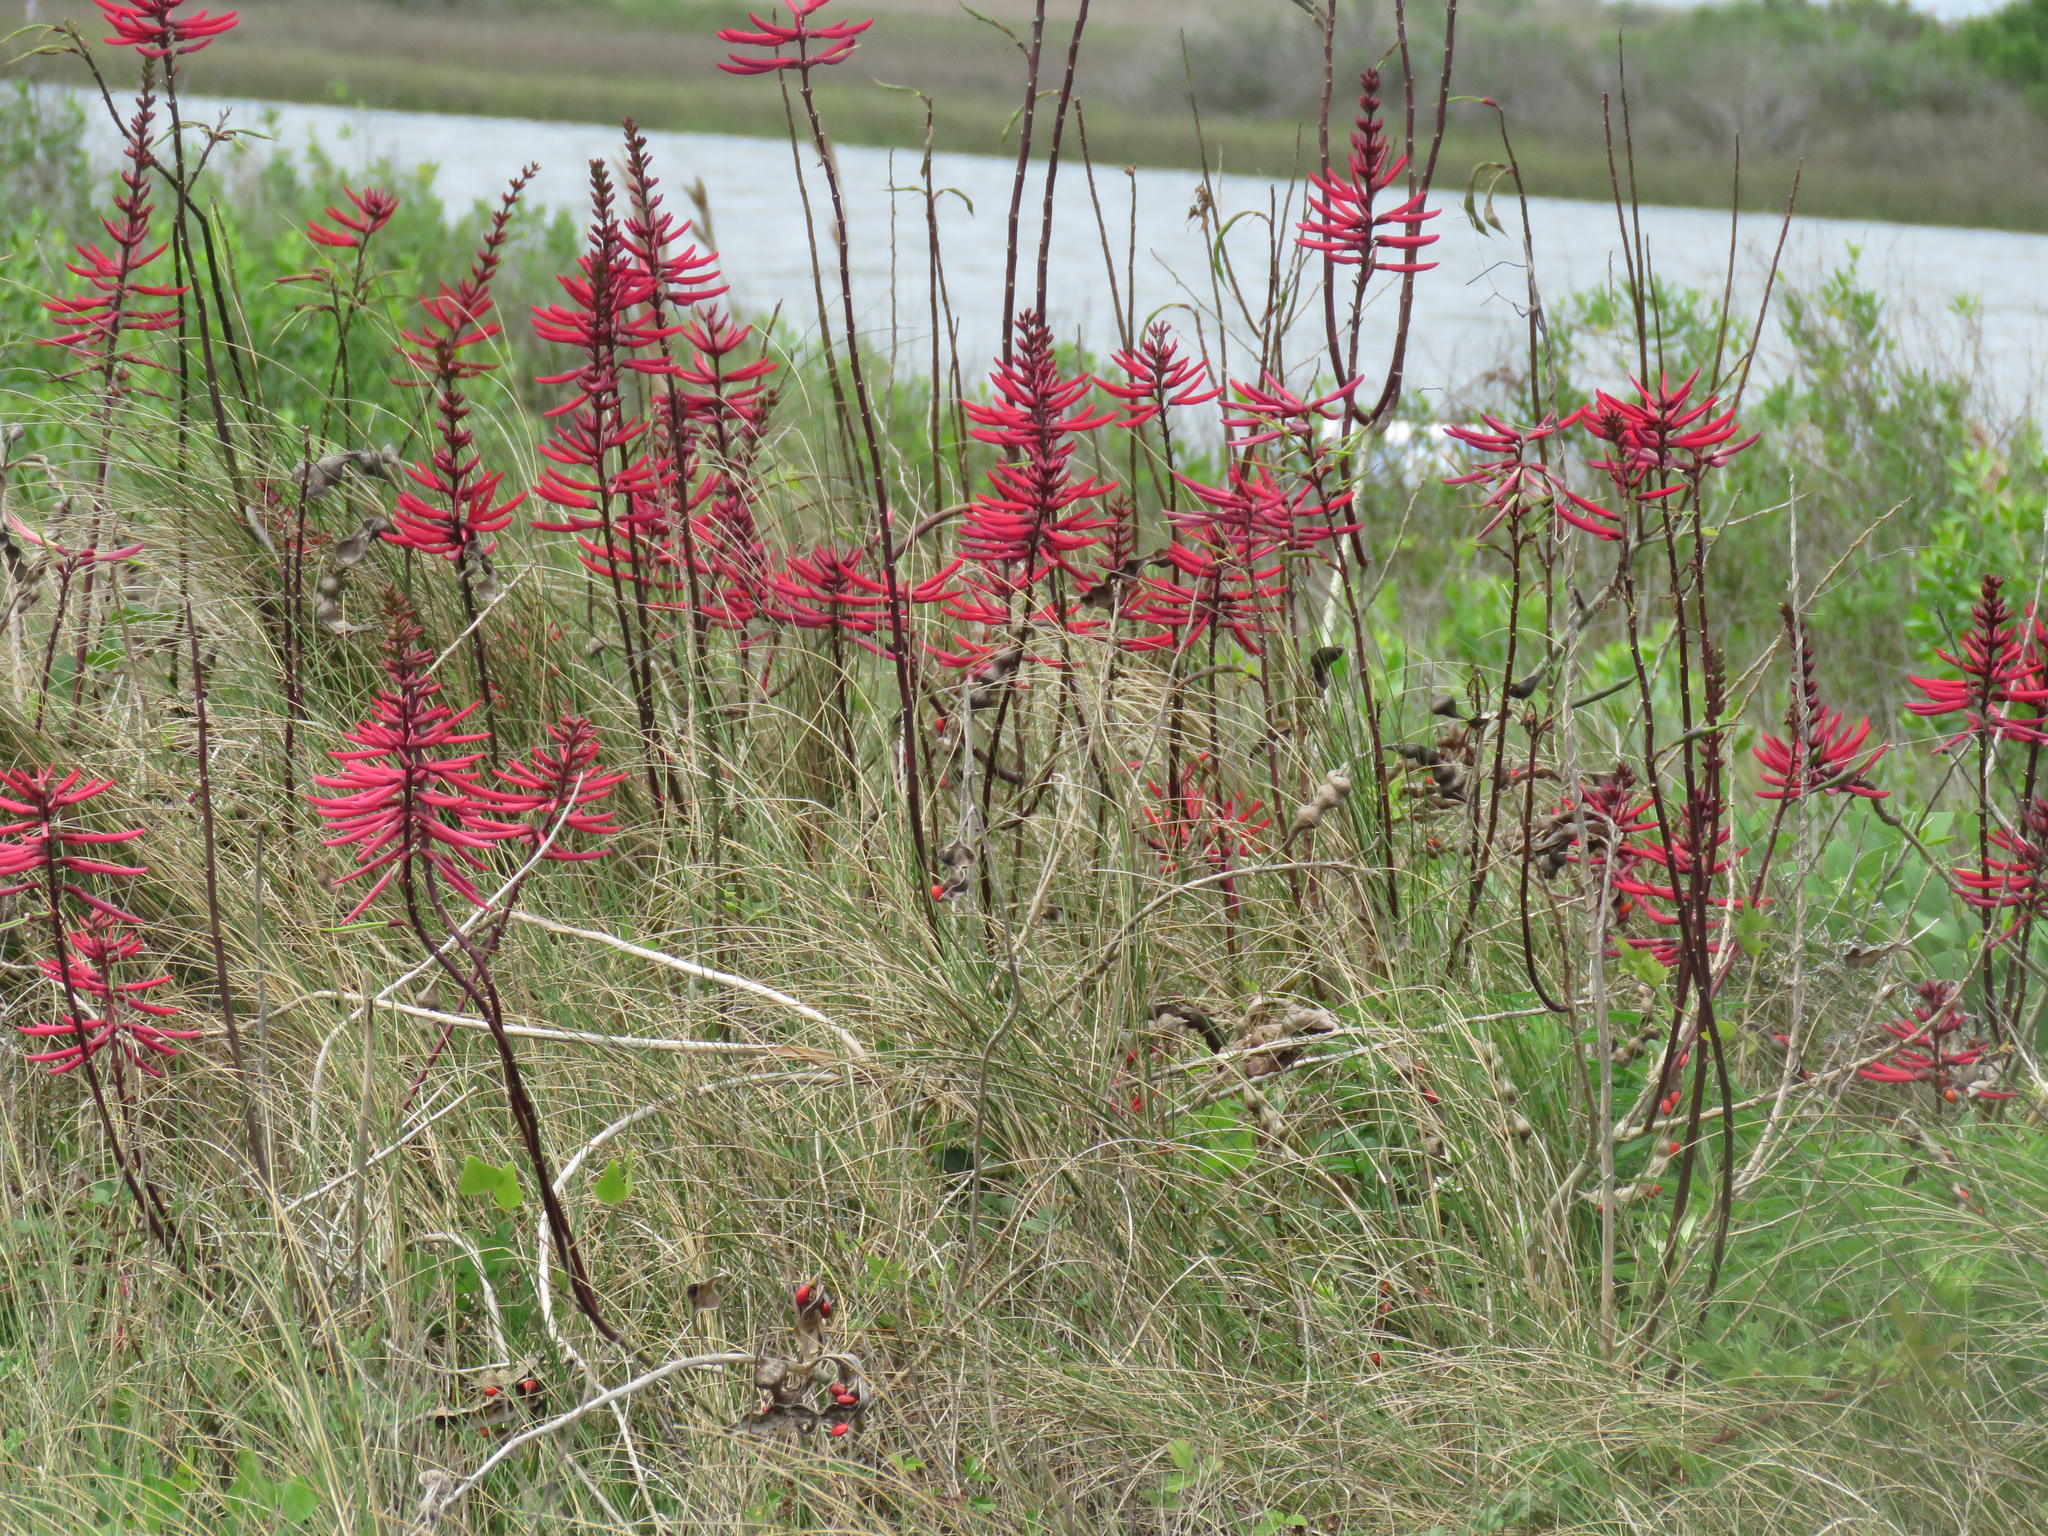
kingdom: Plantae
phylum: Tracheophyta
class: Magnoliopsida
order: Fabales
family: Fabaceae
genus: Erythrina
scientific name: Erythrina herbacea
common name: Coral-bean
